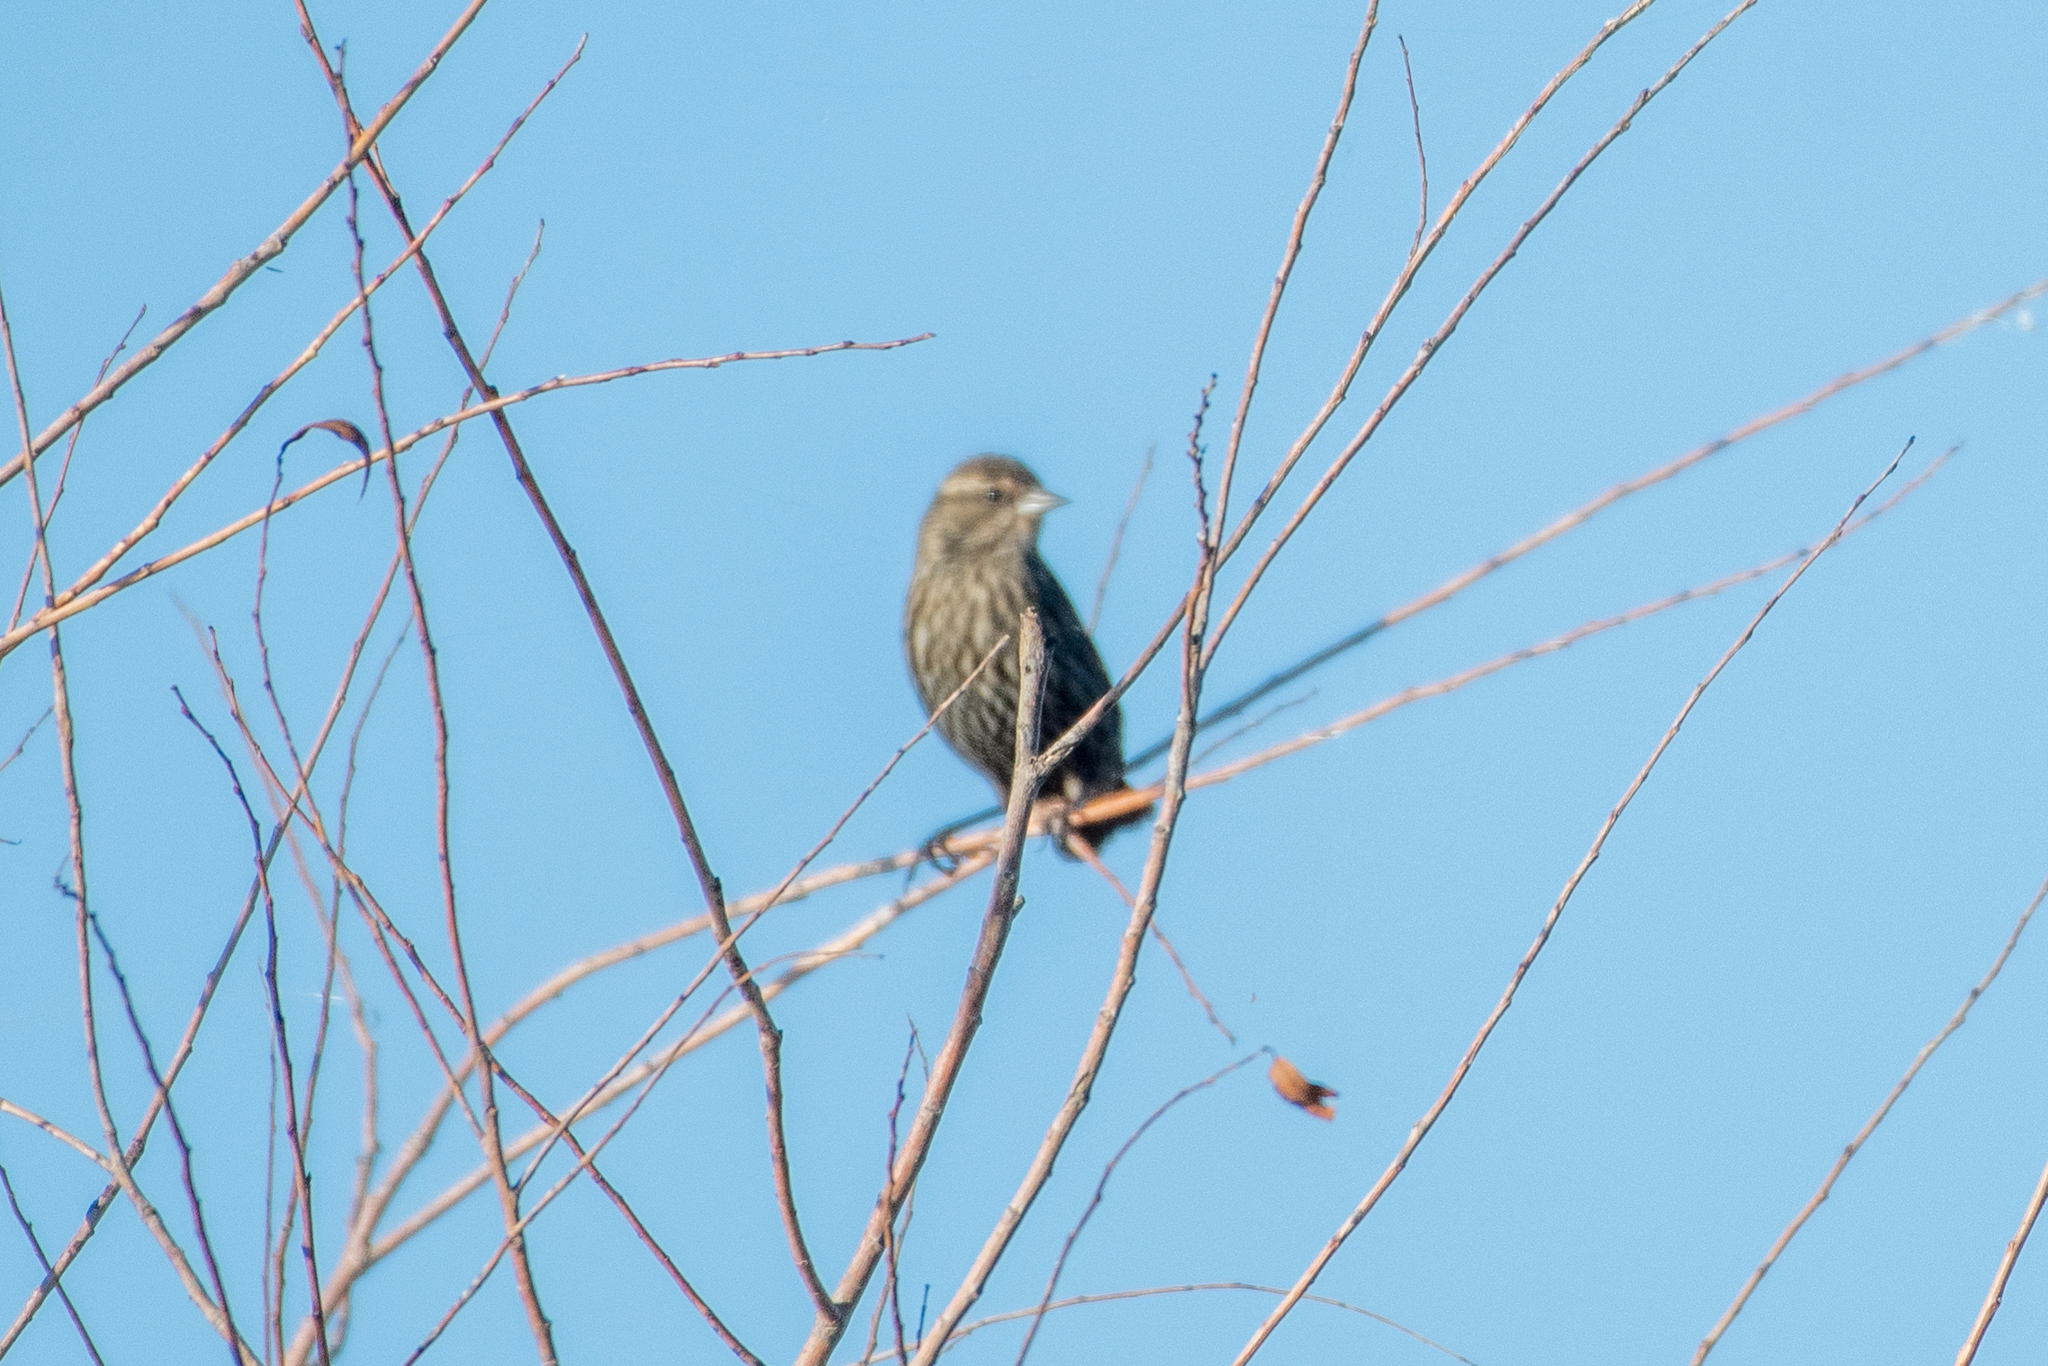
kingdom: Animalia
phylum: Chordata
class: Aves
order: Passeriformes
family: Icteridae
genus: Agelaius
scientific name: Agelaius phoeniceus
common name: Red-winged blackbird
